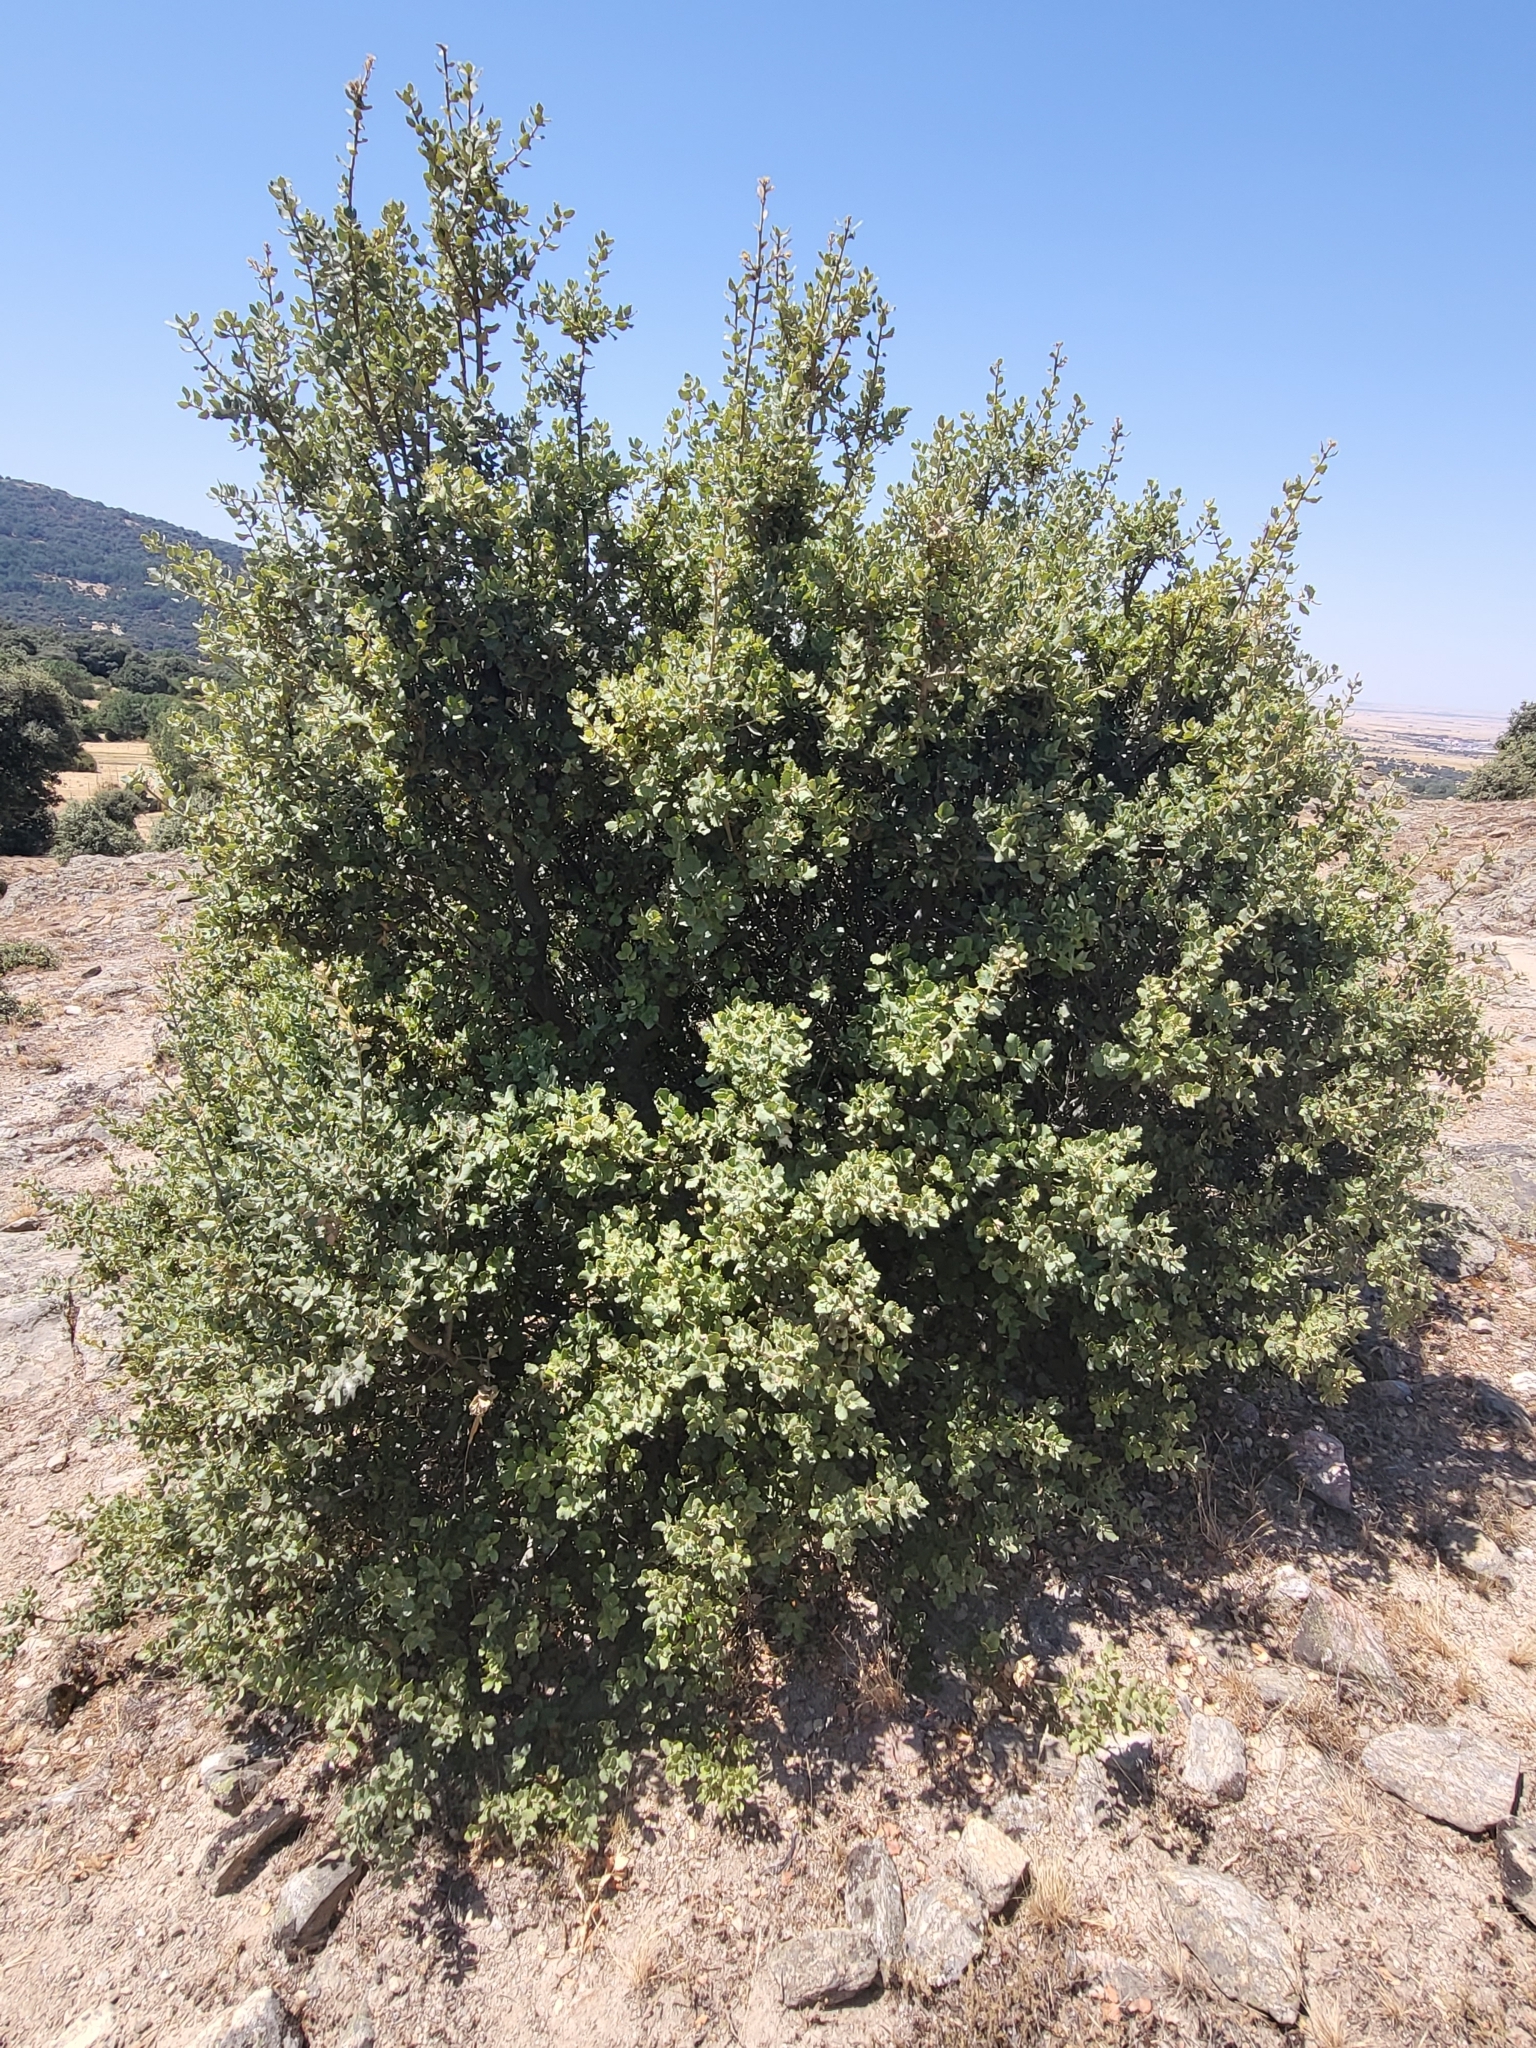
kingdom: Plantae
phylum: Tracheophyta
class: Magnoliopsida
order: Fagales
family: Fagaceae
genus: Quercus
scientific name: Quercus rotundifolia
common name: Holm oak
